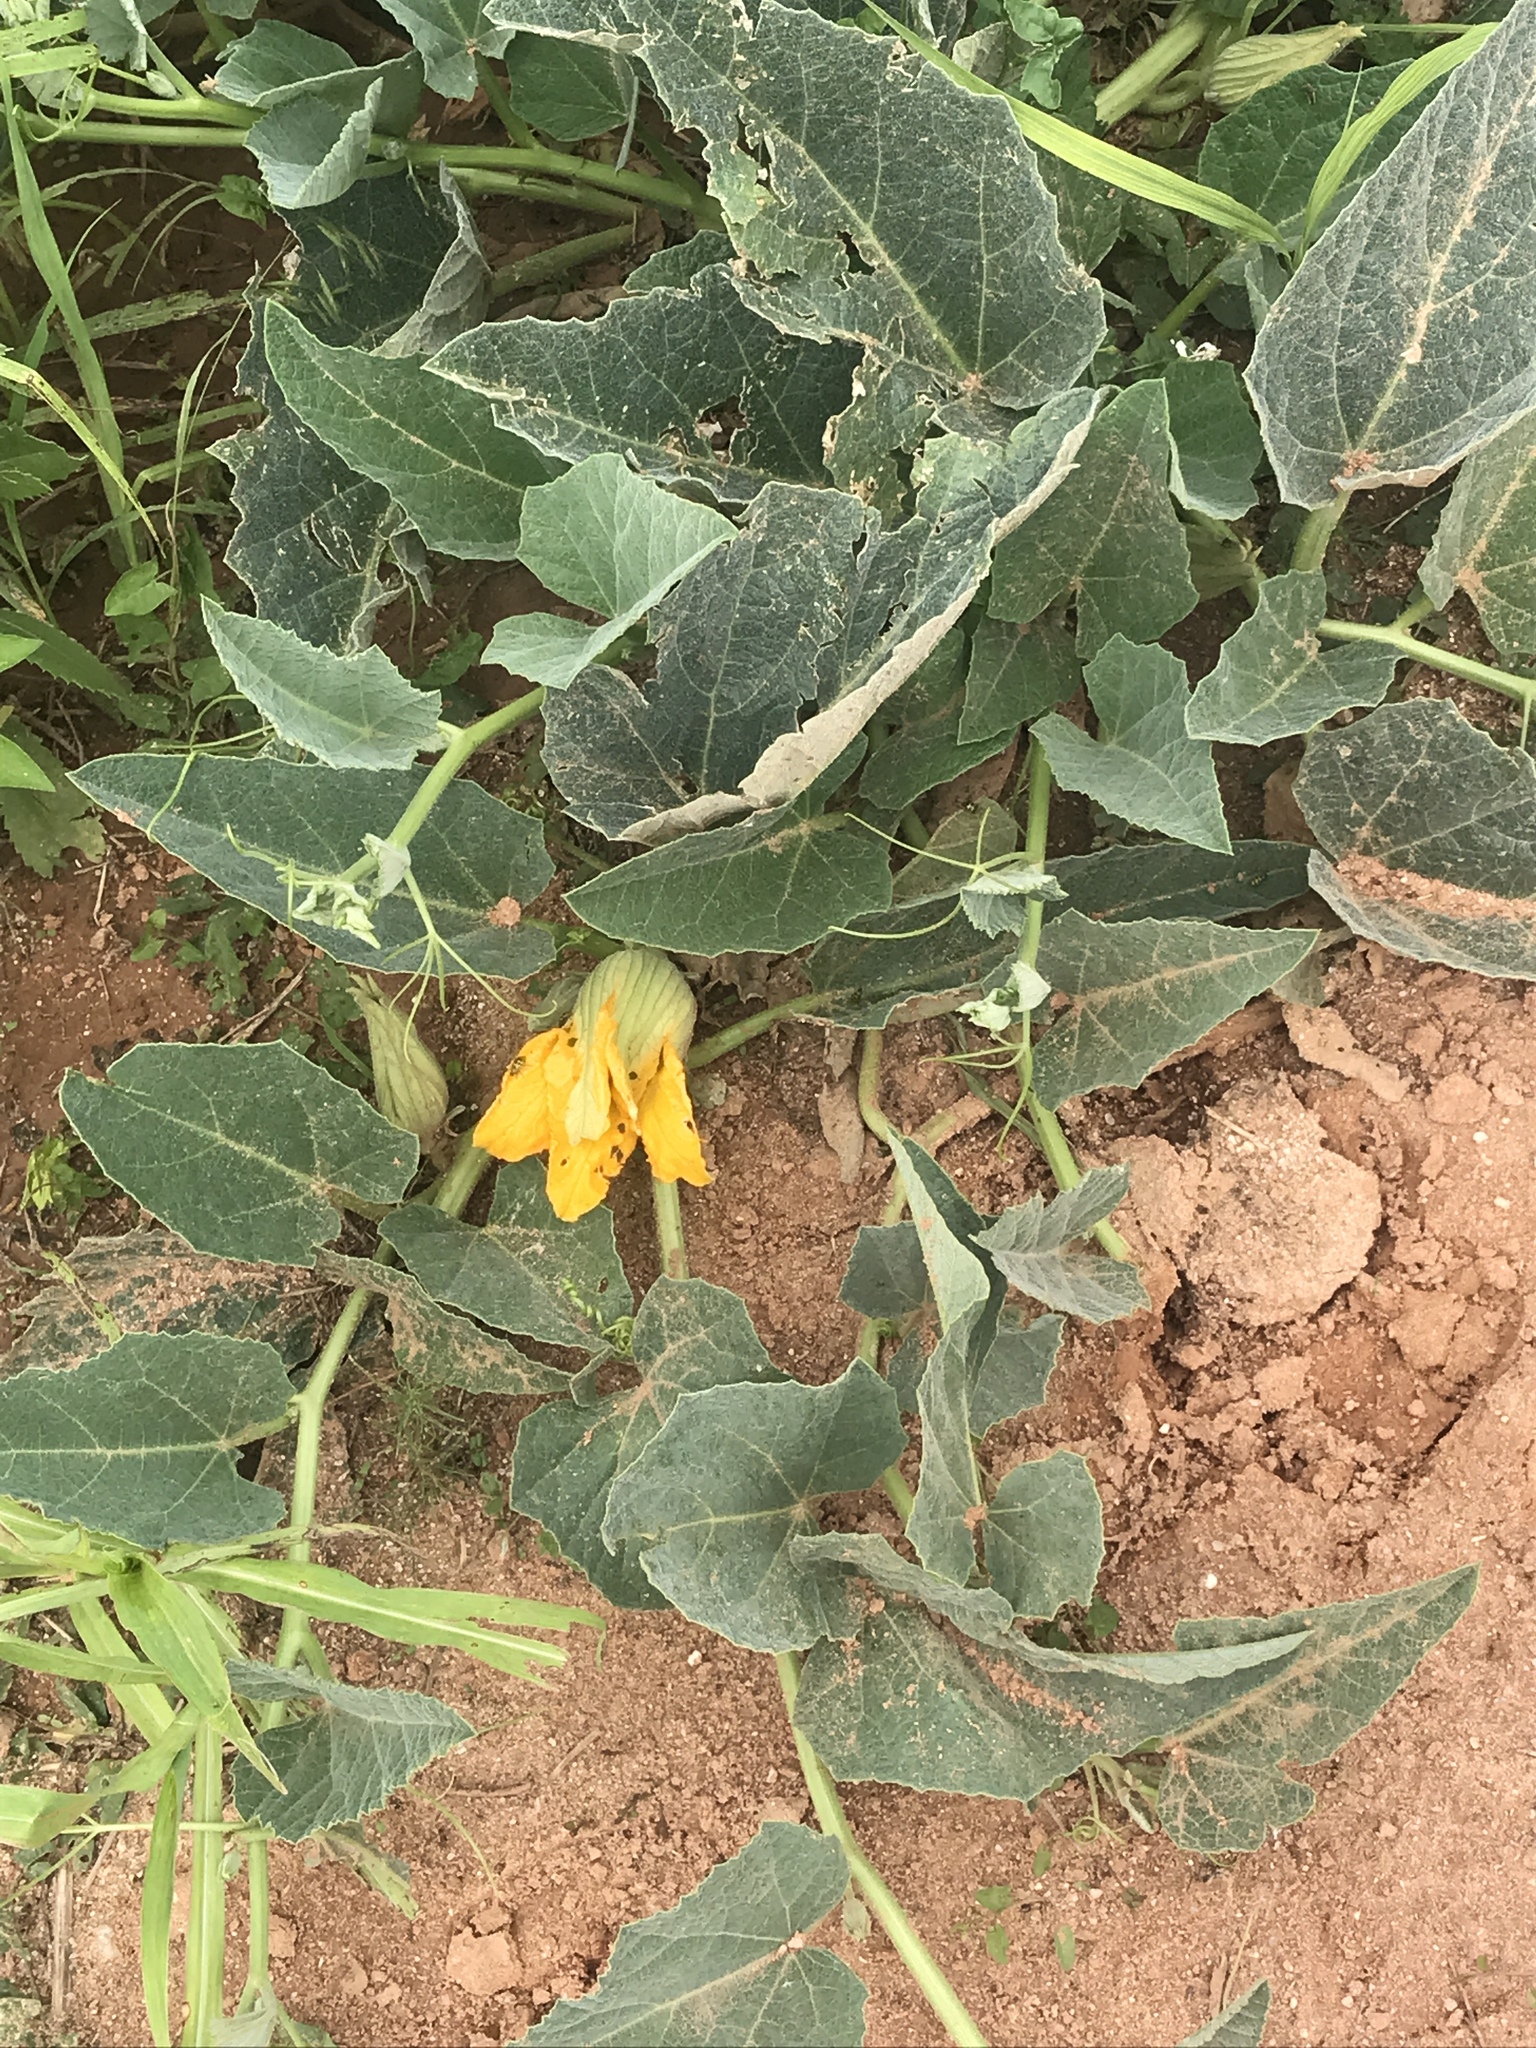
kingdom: Plantae
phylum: Tracheophyta
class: Magnoliopsida
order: Cucurbitales
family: Cucurbitaceae
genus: Cucurbita
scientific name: Cucurbita foetidissima
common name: Buffalo gourd
